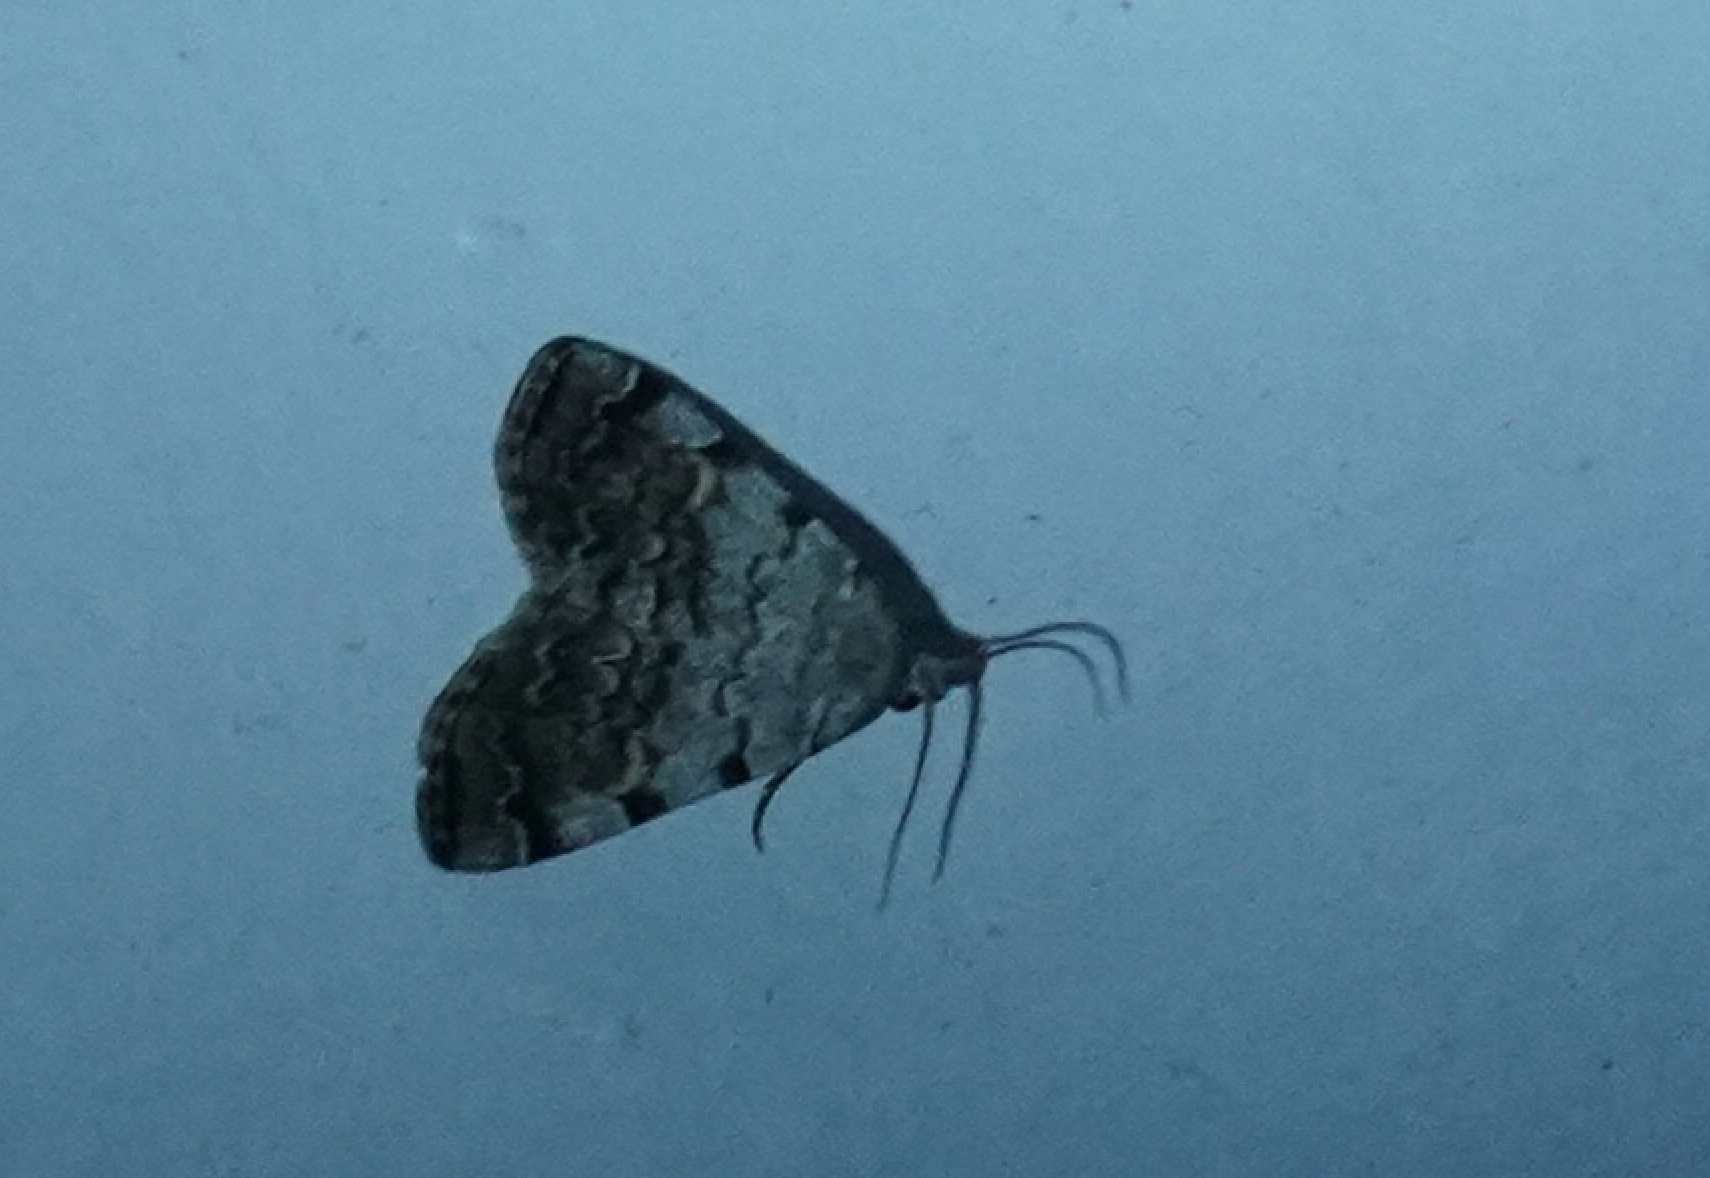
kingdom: Animalia
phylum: Arthropoda
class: Insecta
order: Lepidoptera
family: Erebidae
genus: Idia
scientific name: Idia americalis
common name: American idia moth
